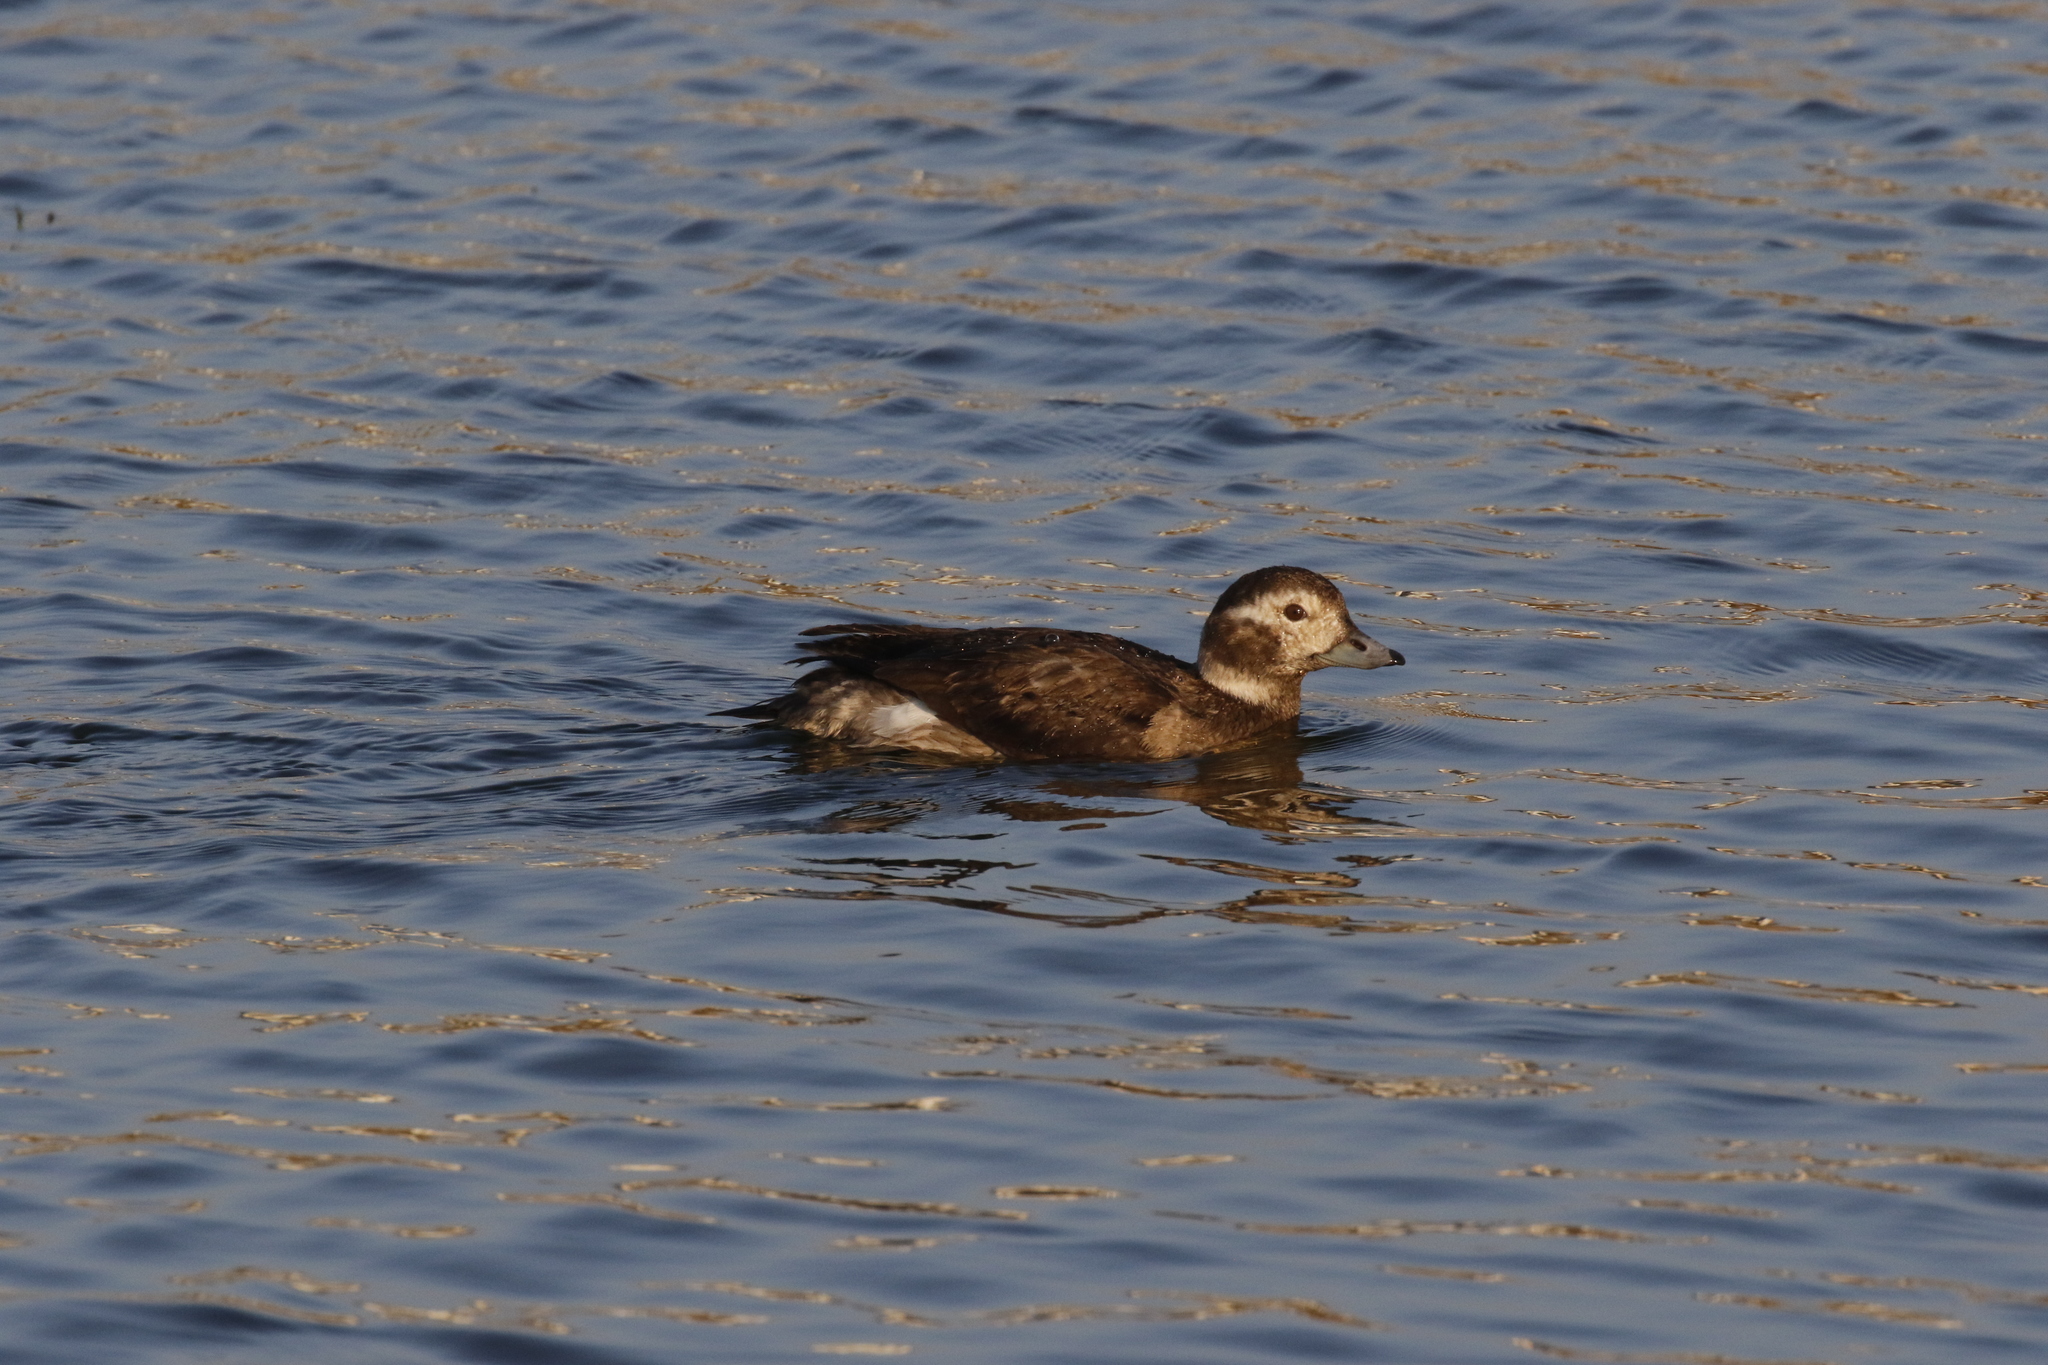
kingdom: Animalia
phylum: Chordata
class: Aves
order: Anseriformes
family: Anatidae
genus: Clangula
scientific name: Clangula hyemalis
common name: Long-tailed duck
